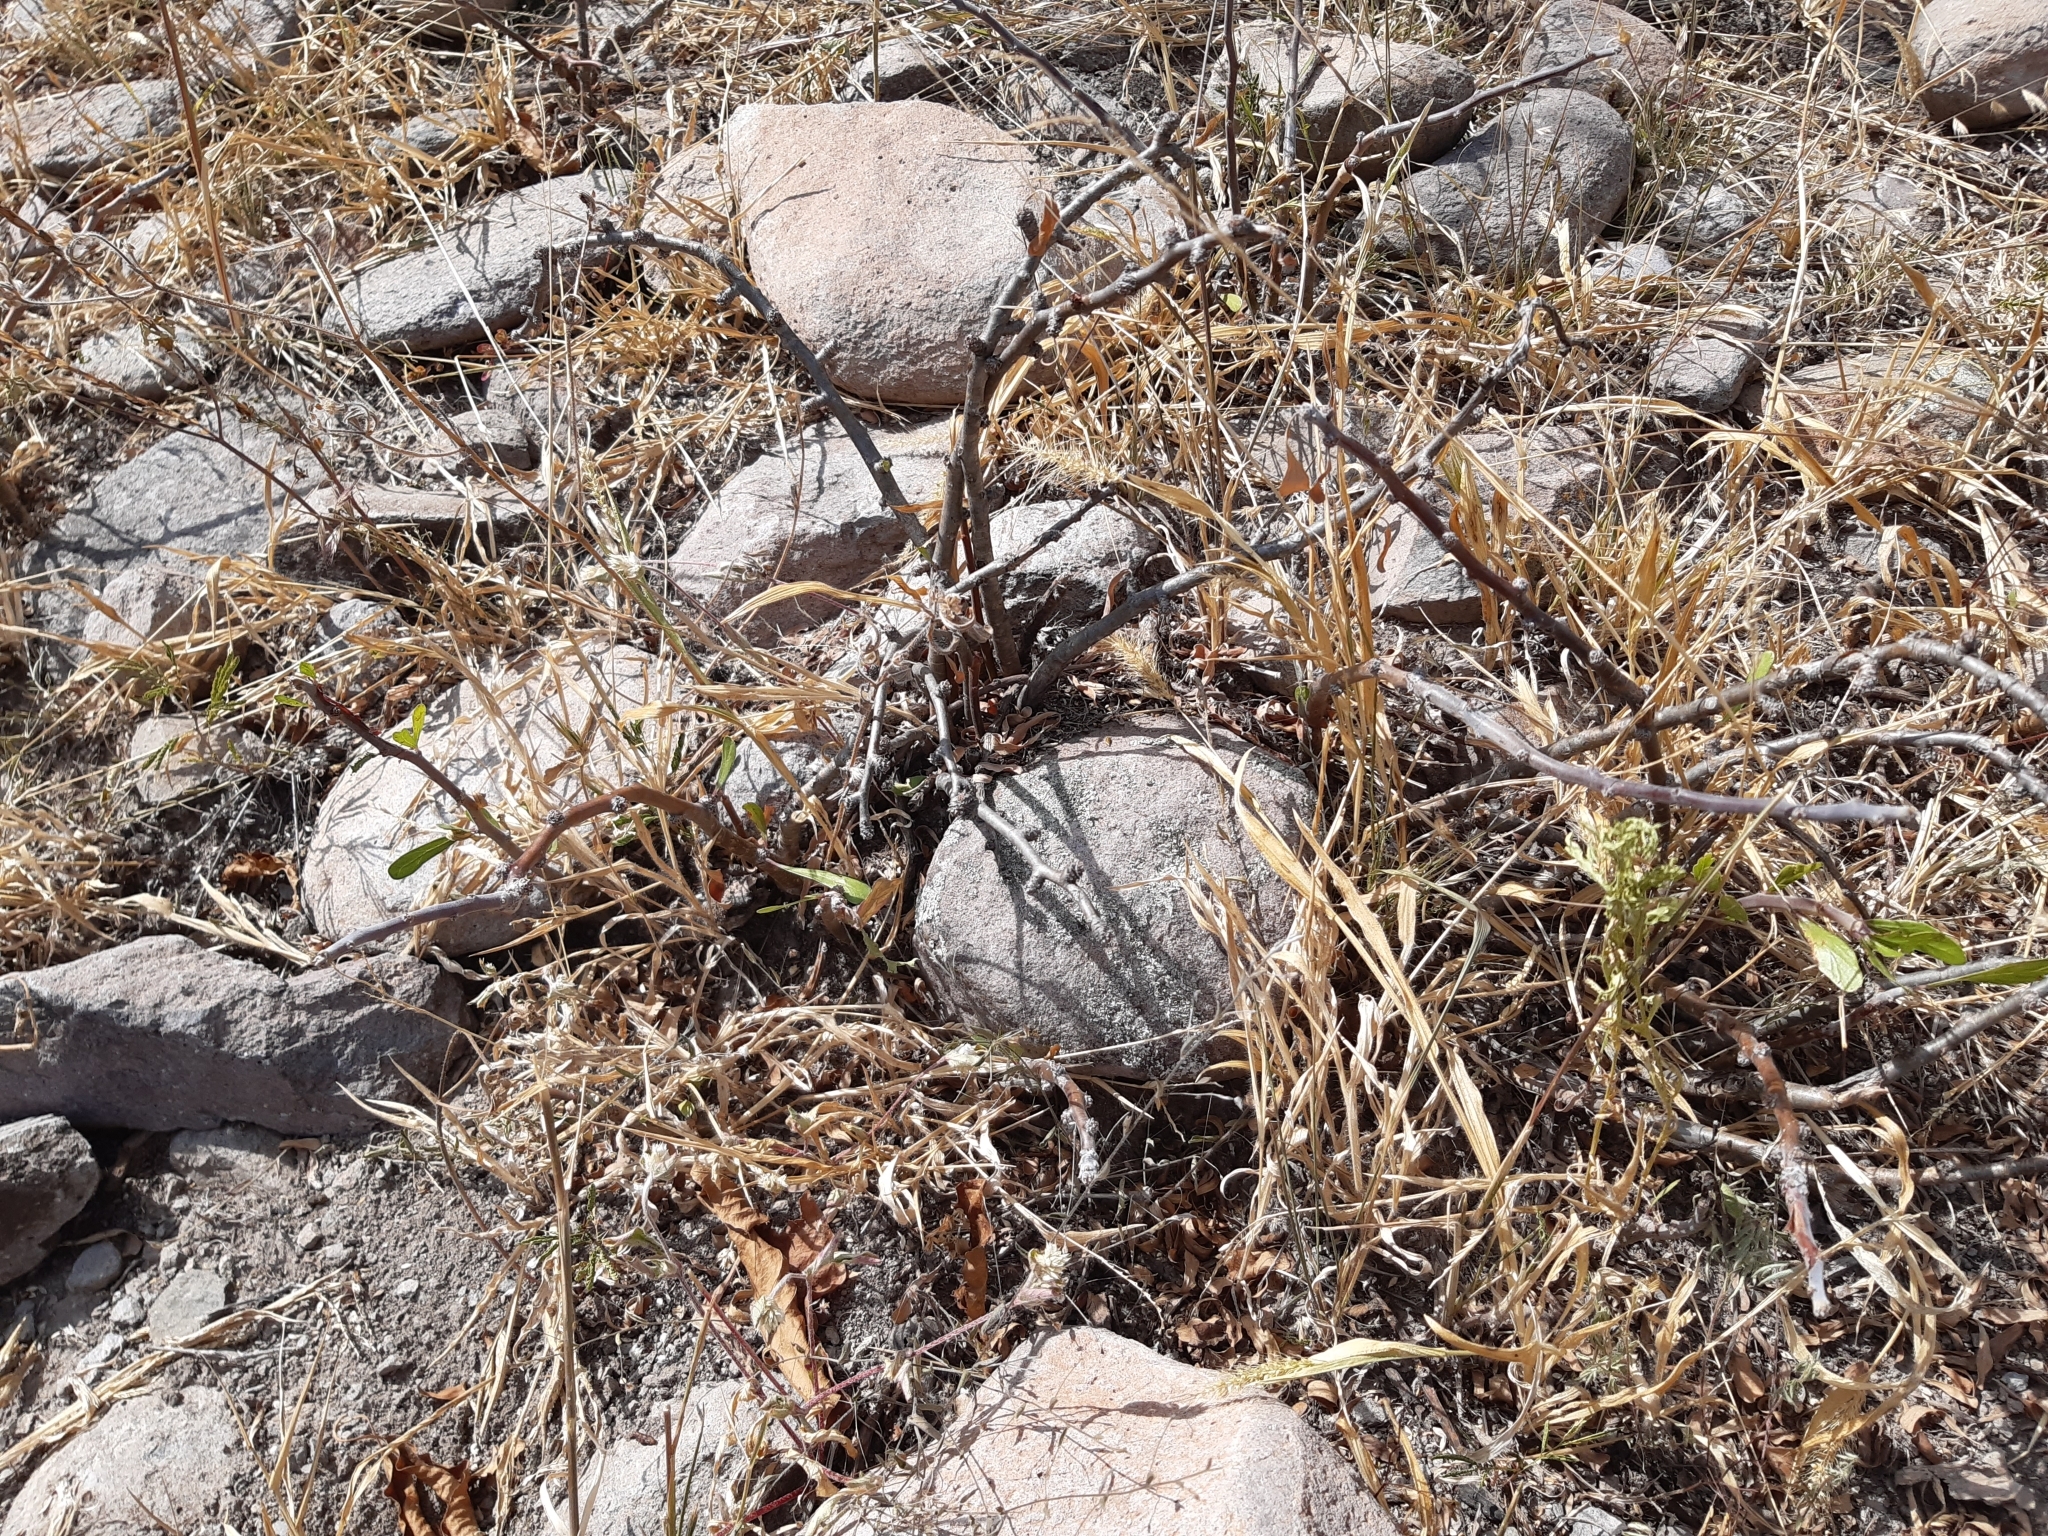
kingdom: Plantae
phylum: Tracheophyta
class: Magnoliopsida
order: Malpighiales
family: Euphorbiaceae
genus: Jatropha
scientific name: Jatropha dioica
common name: Leatherstem
